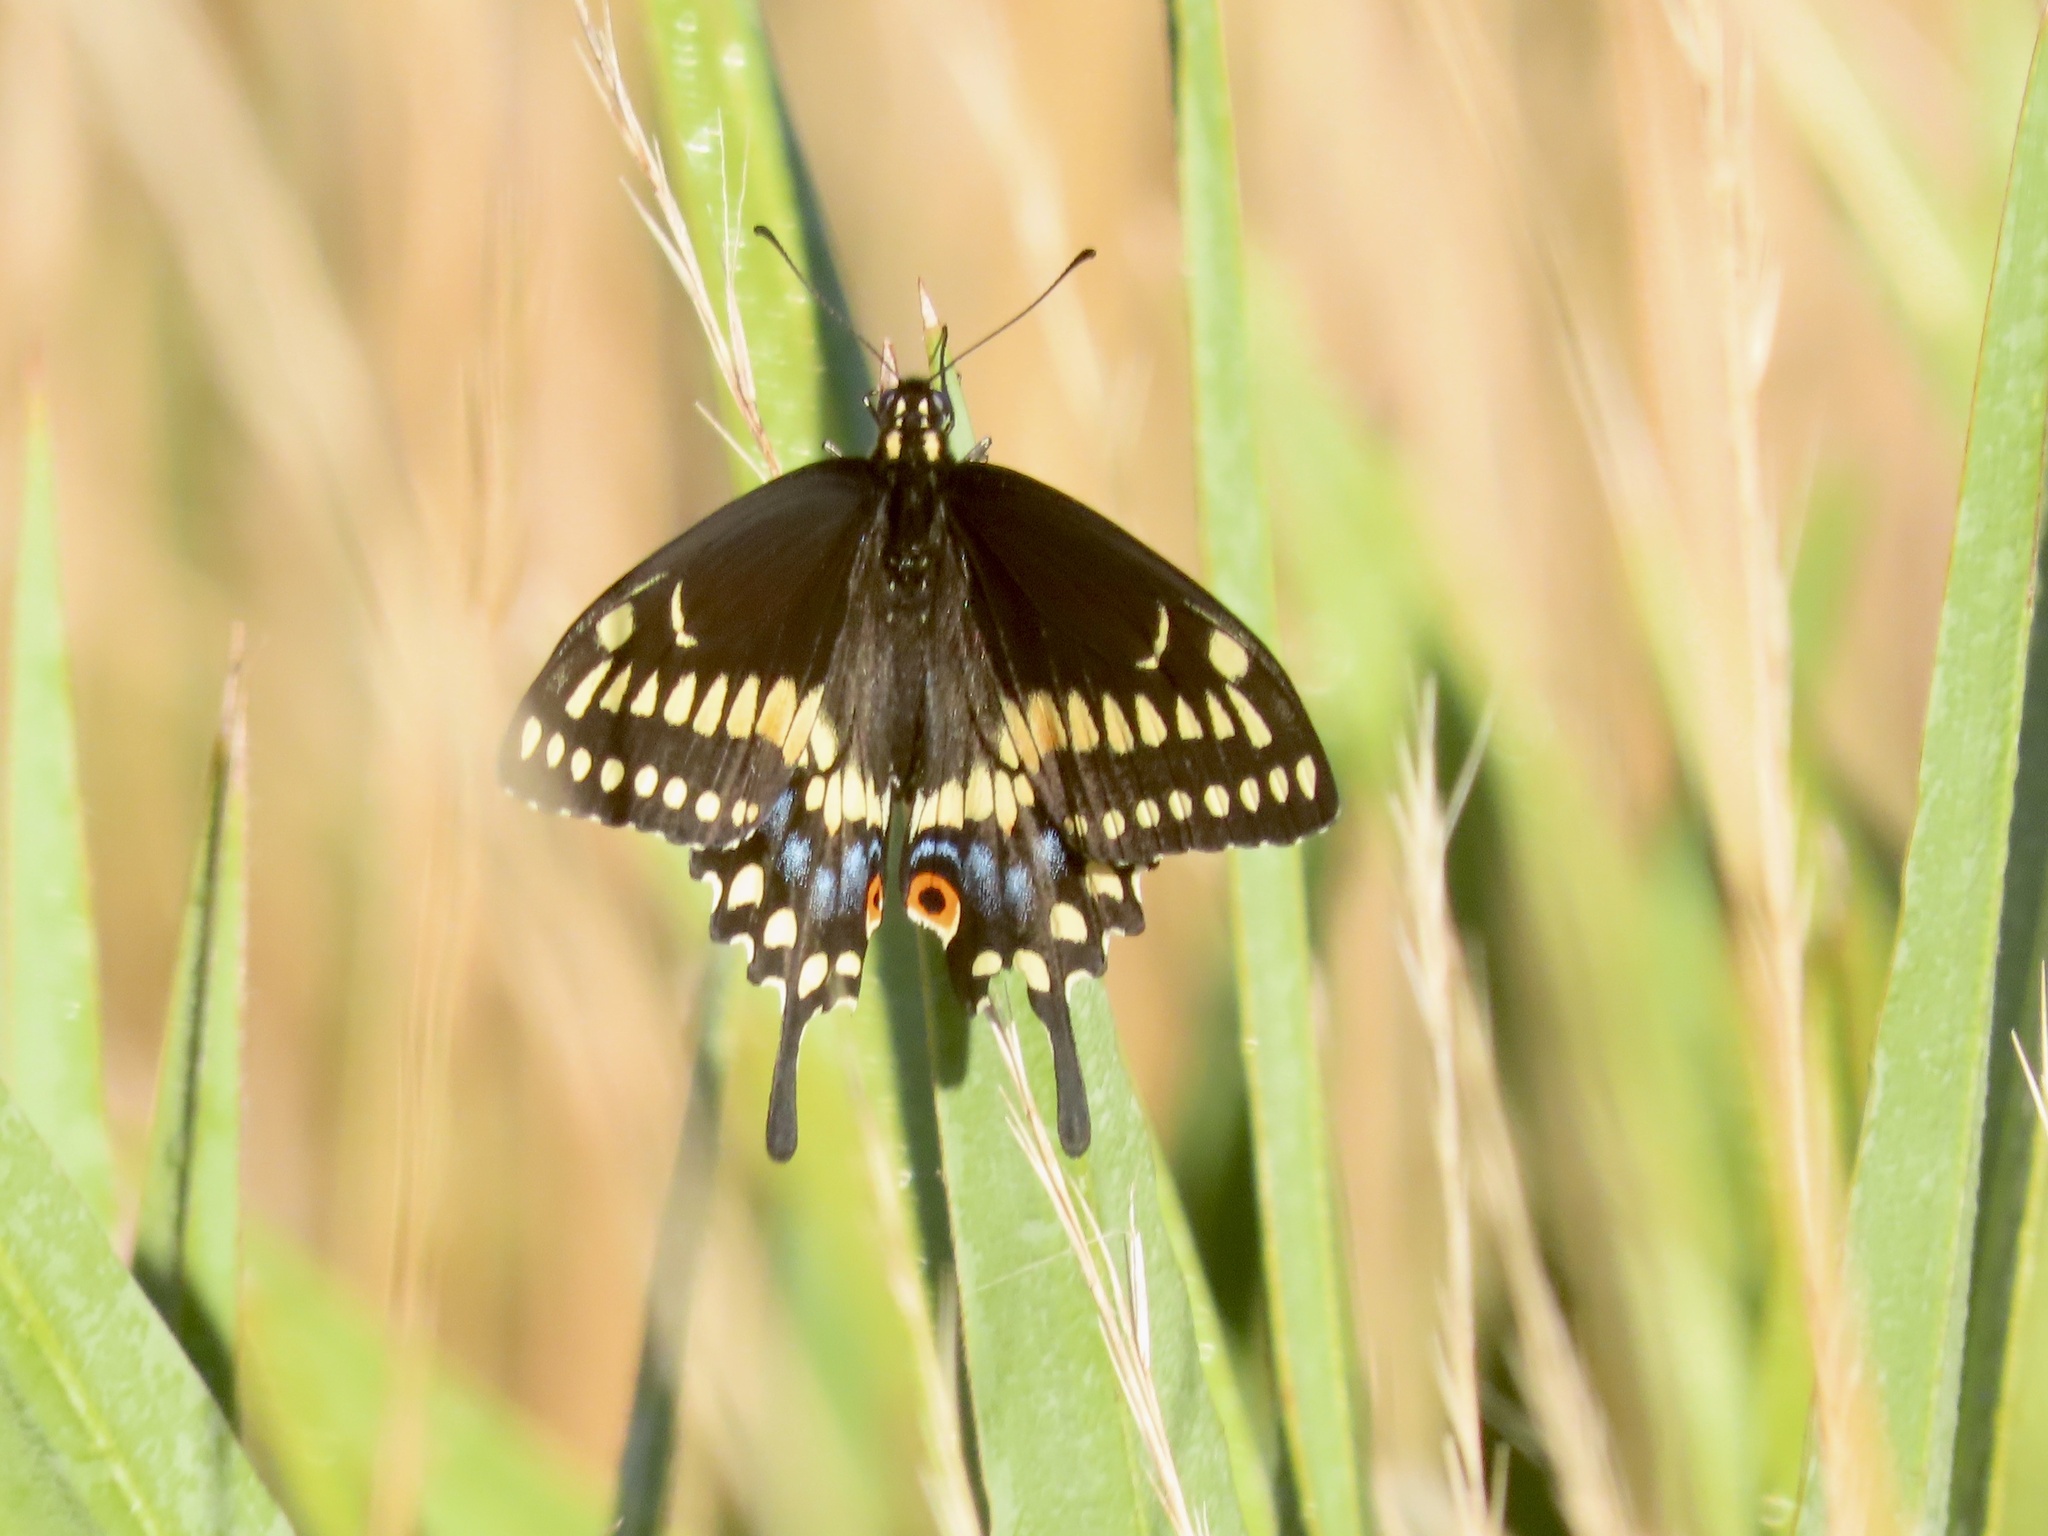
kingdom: Animalia
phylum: Arthropoda
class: Insecta
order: Lepidoptera
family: Papilionidae
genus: Papilio
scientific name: Papilio polyxenes
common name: Black swallowtail
